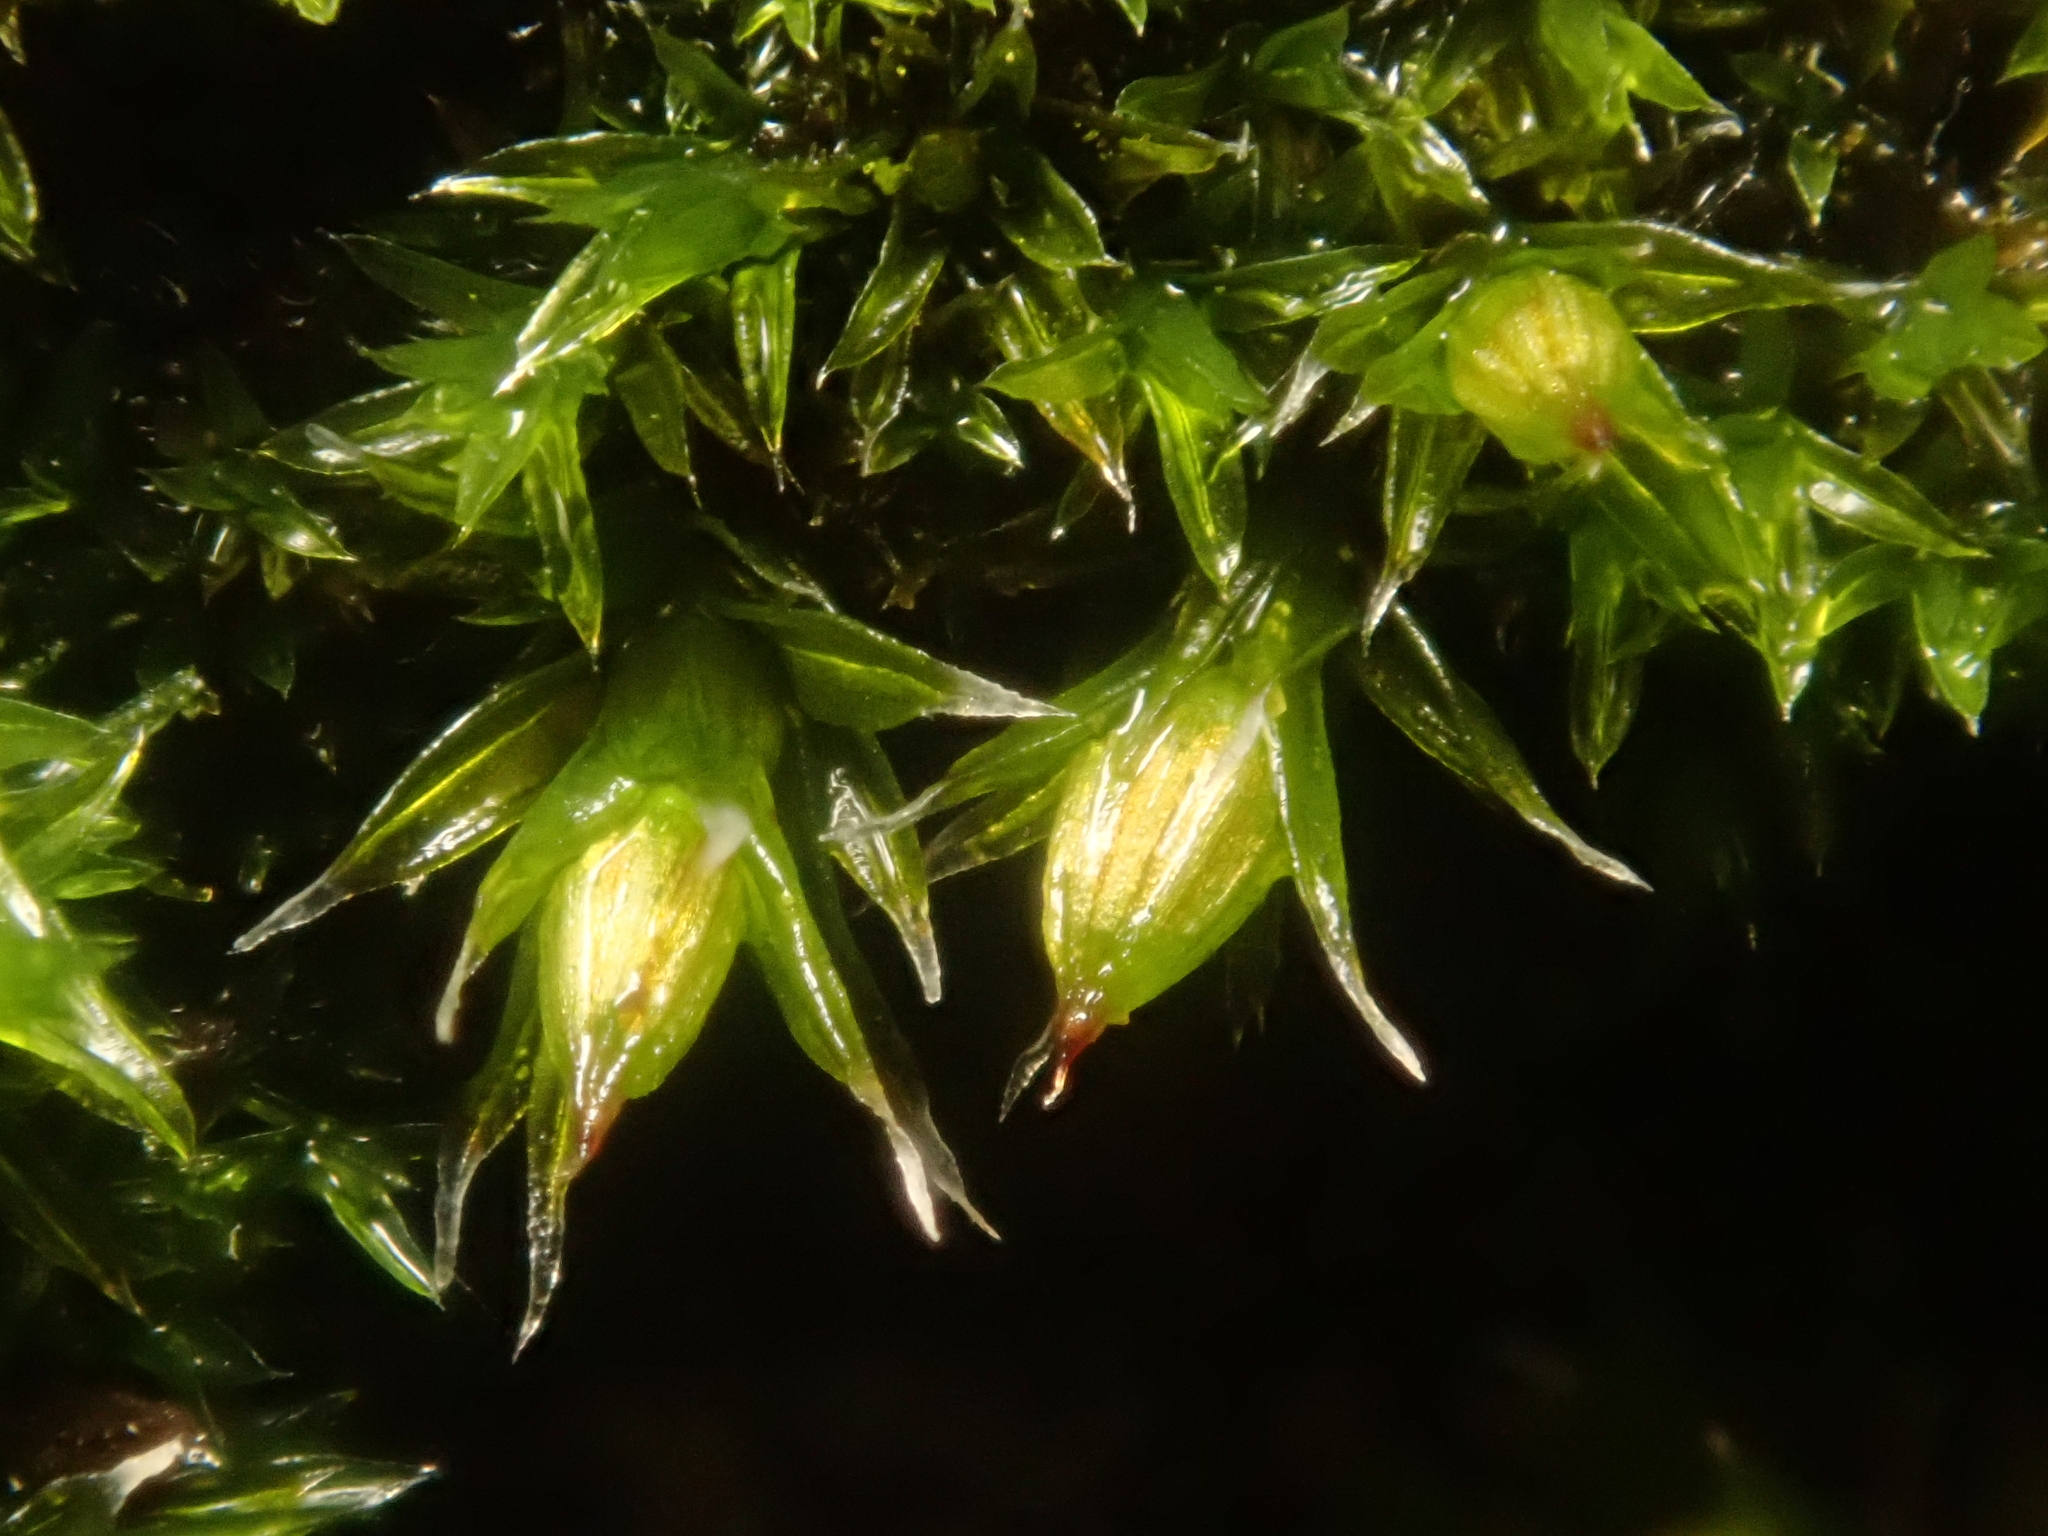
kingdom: Plantae
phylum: Bryophyta
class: Bryopsida
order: Orthotrichales
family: Orthotrichaceae
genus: Orthotrichum
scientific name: Orthotrichum diaphanum
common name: White-tipped bristle-moss
